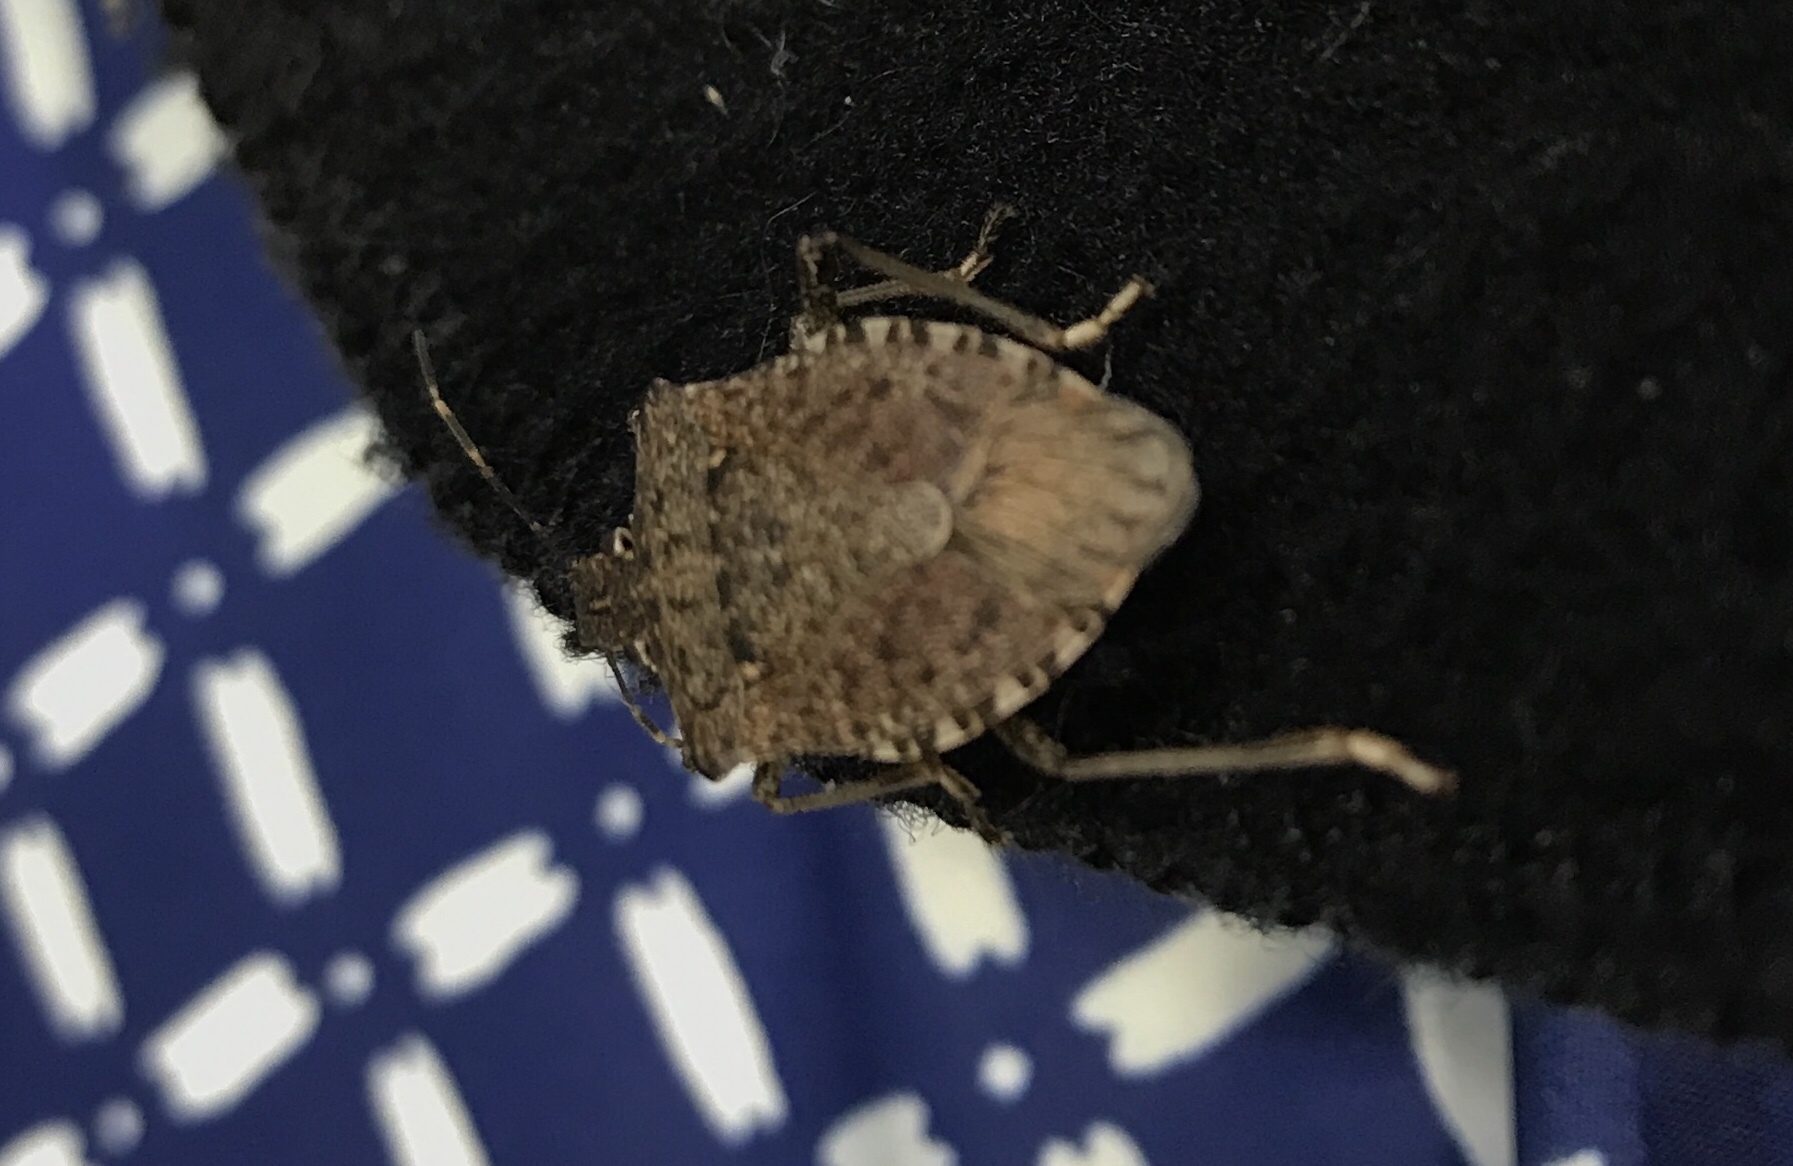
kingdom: Animalia
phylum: Arthropoda
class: Insecta
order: Hemiptera
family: Pentatomidae
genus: Halyomorpha
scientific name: Halyomorpha halys
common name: Brown marmorated stink bug
